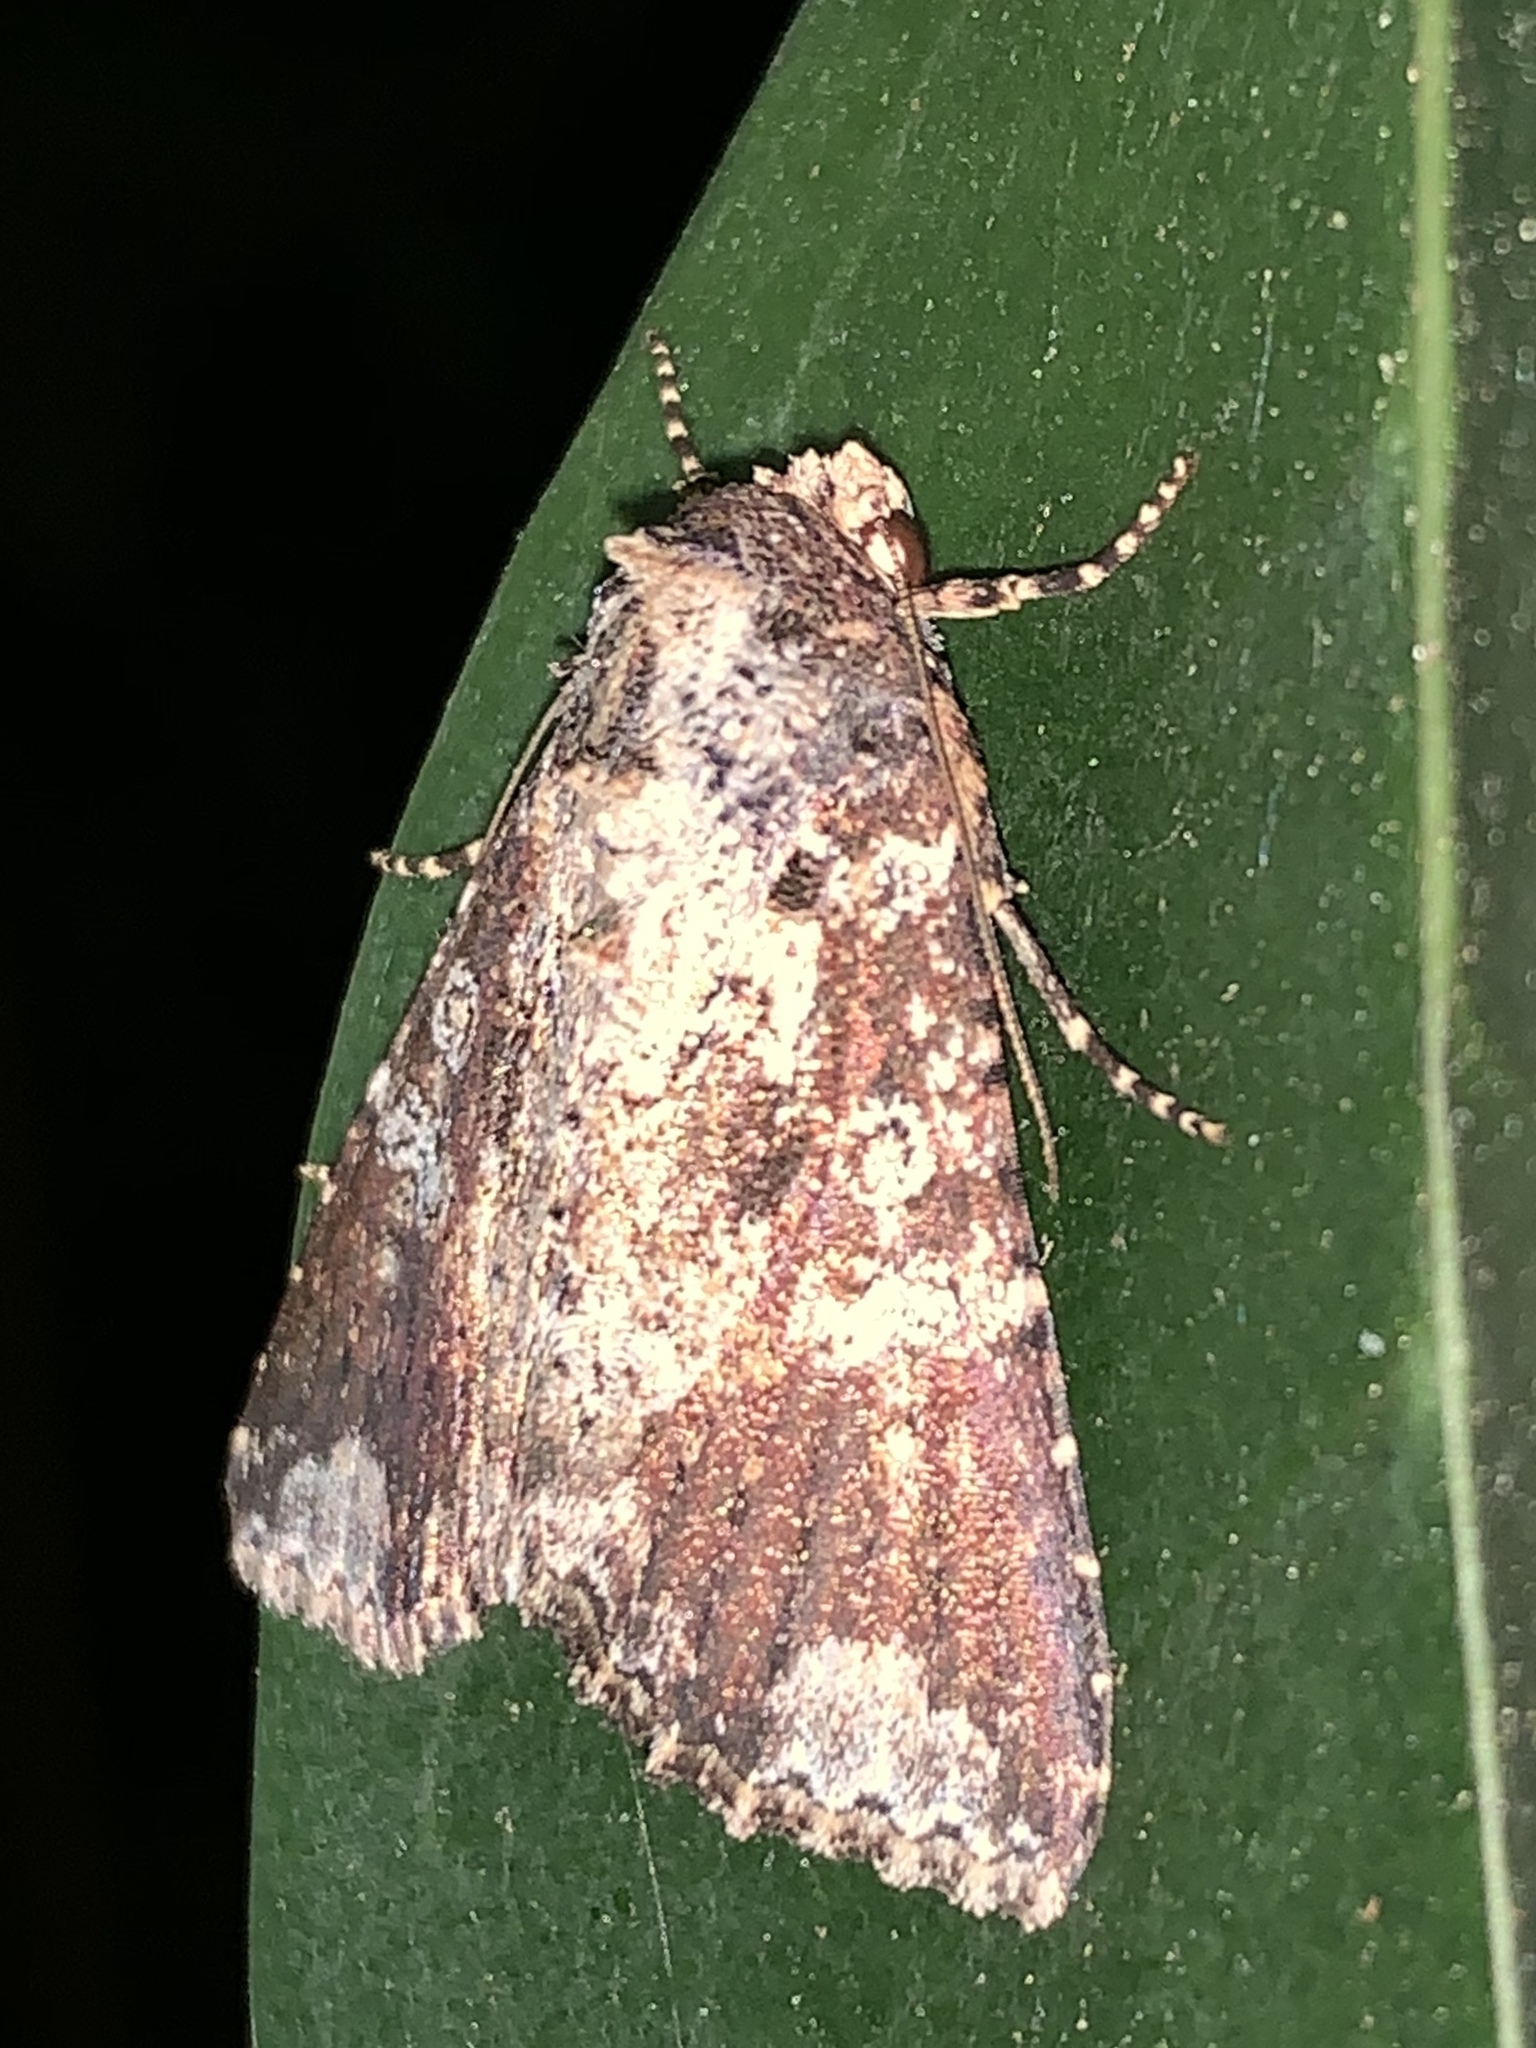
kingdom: Animalia
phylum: Arthropoda
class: Insecta
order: Lepidoptera
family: Noctuidae
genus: Condica
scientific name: Condica confederata
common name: The confederate
